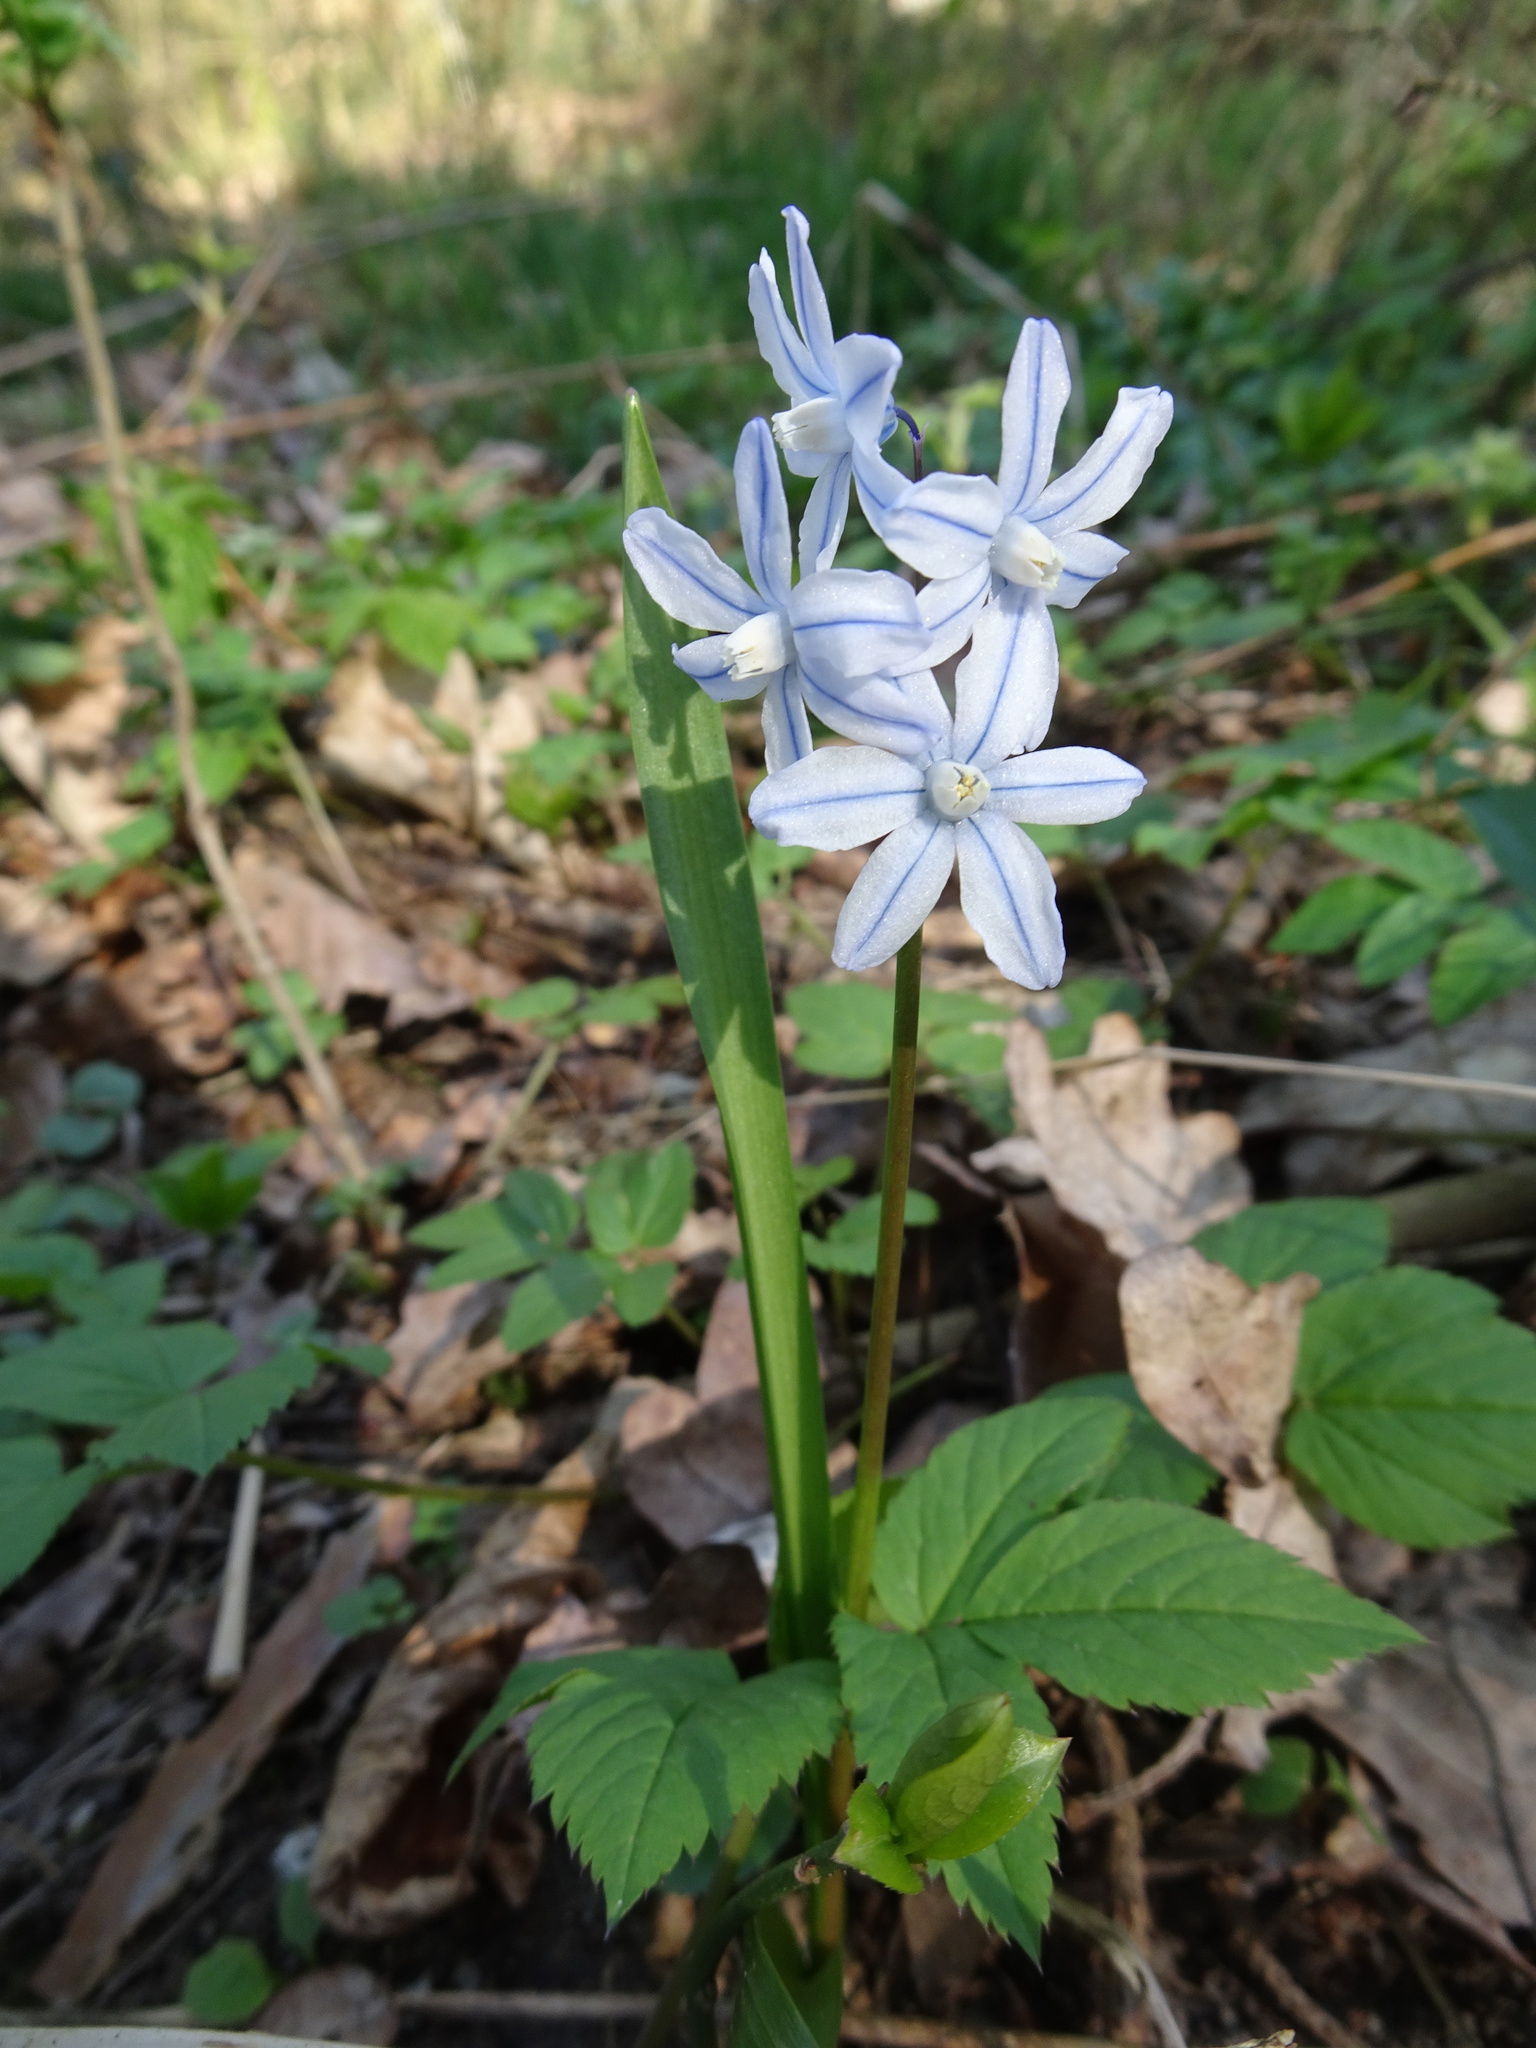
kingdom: Plantae
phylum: Tracheophyta
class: Liliopsida
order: Asparagales
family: Asparagaceae
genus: Puschkinia
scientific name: Puschkinia scilloides
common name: Striped squill
